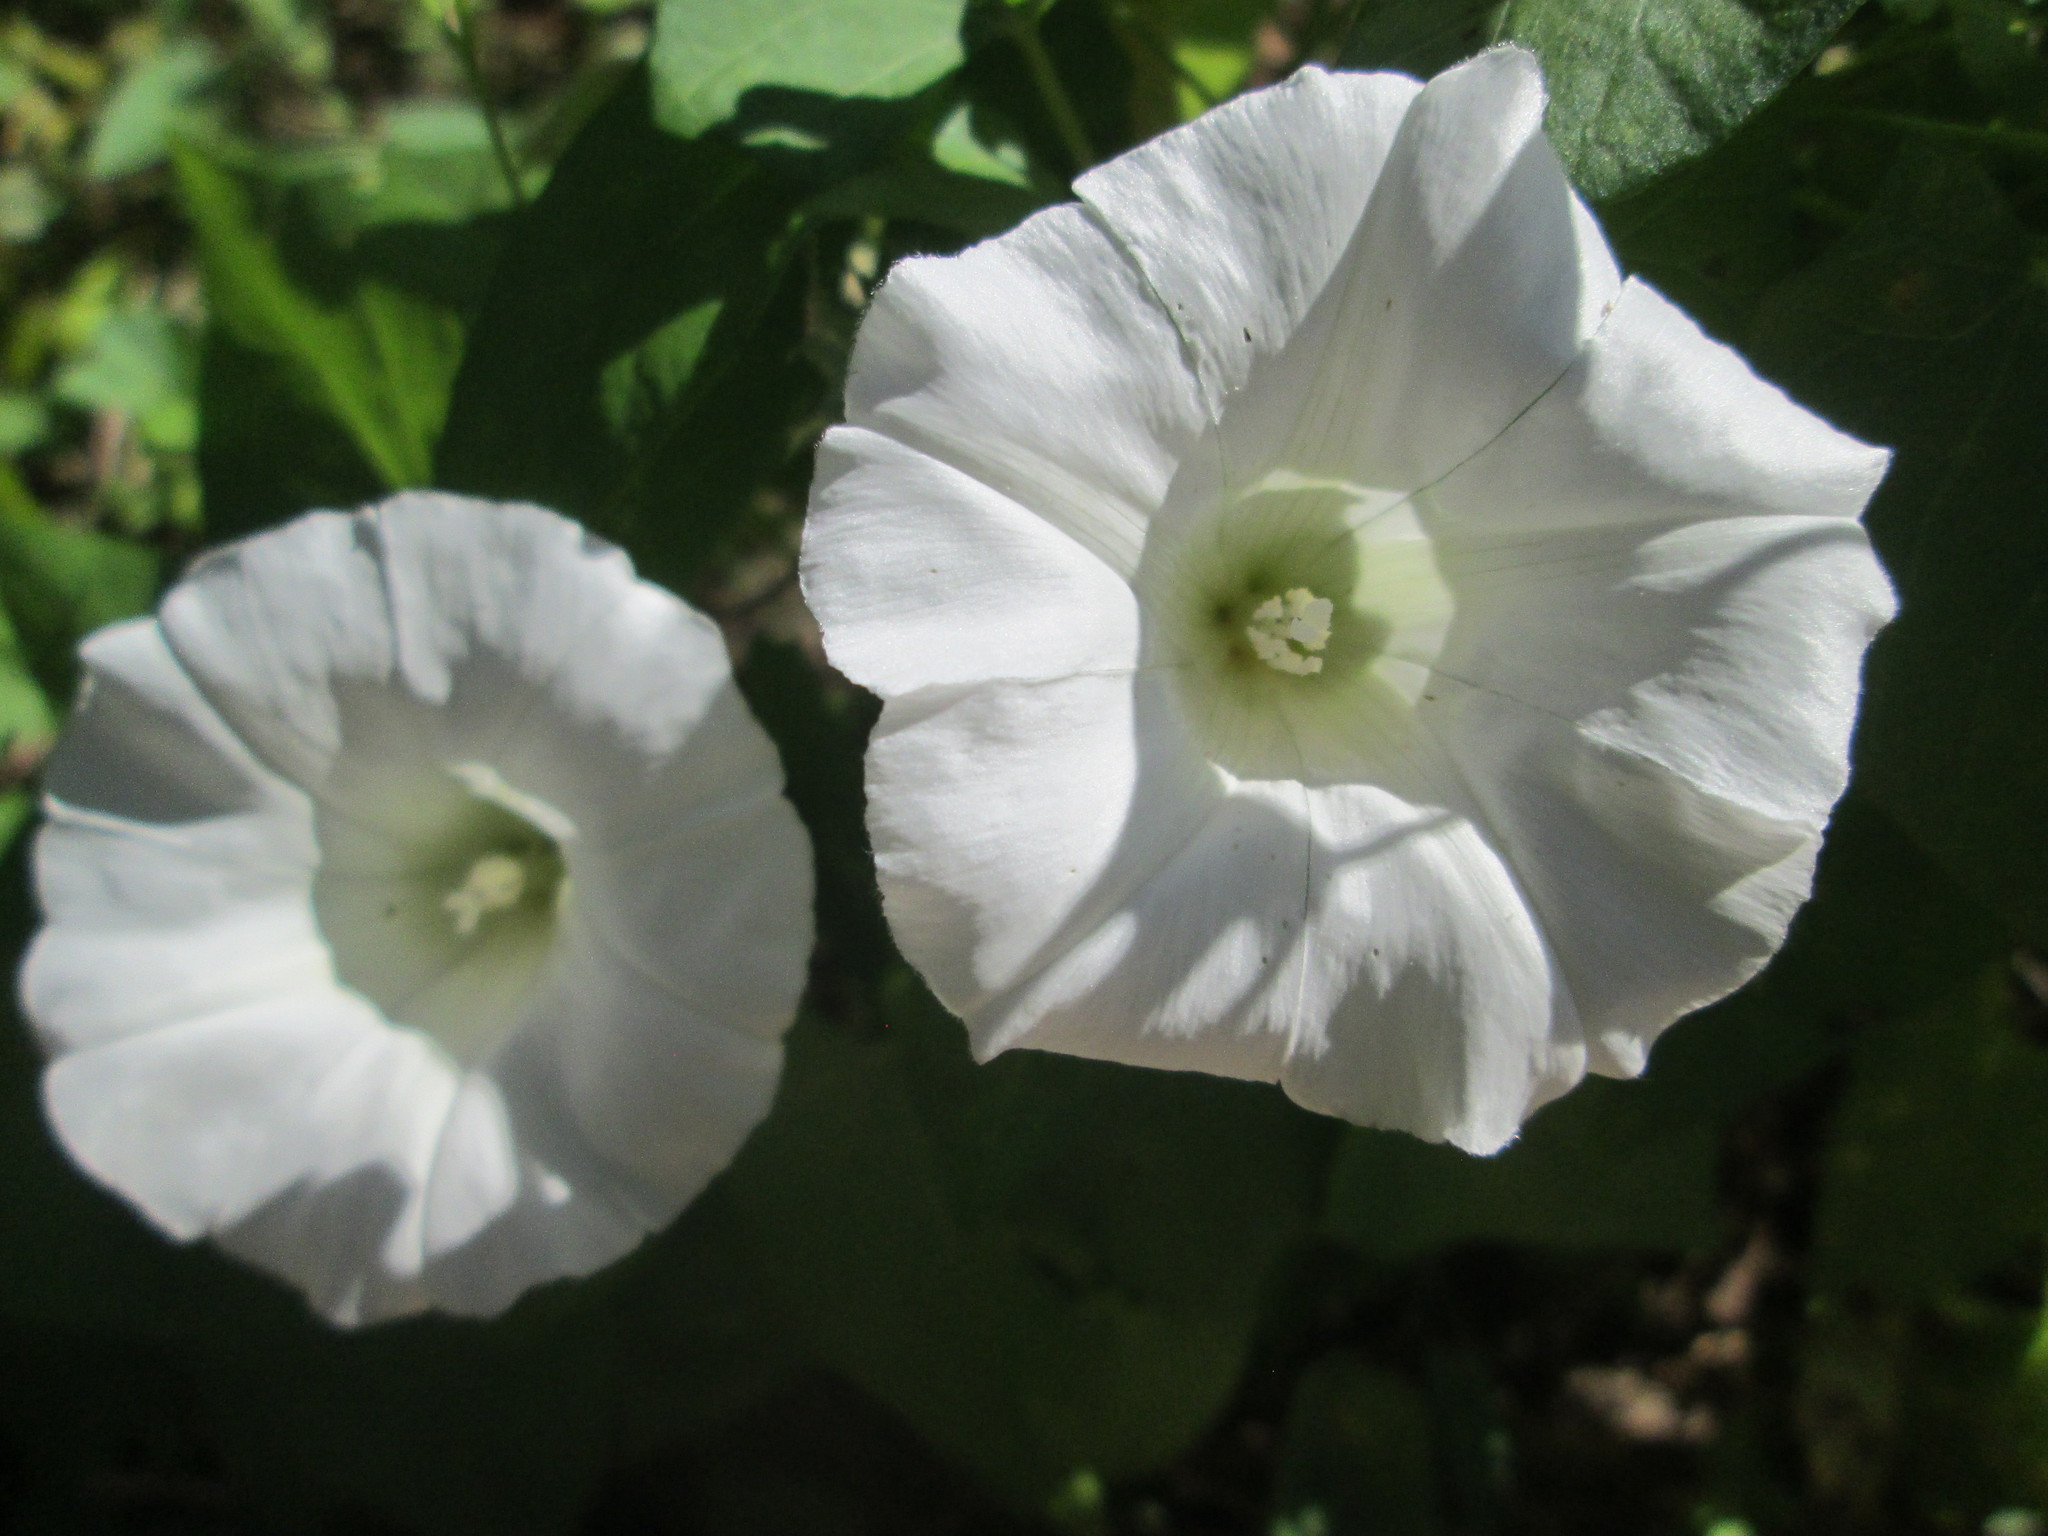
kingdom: Plantae
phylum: Tracheophyta
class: Magnoliopsida
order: Solanales
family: Convolvulaceae
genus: Calystegia
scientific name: Calystegia sepium
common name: Hedge bindweed
